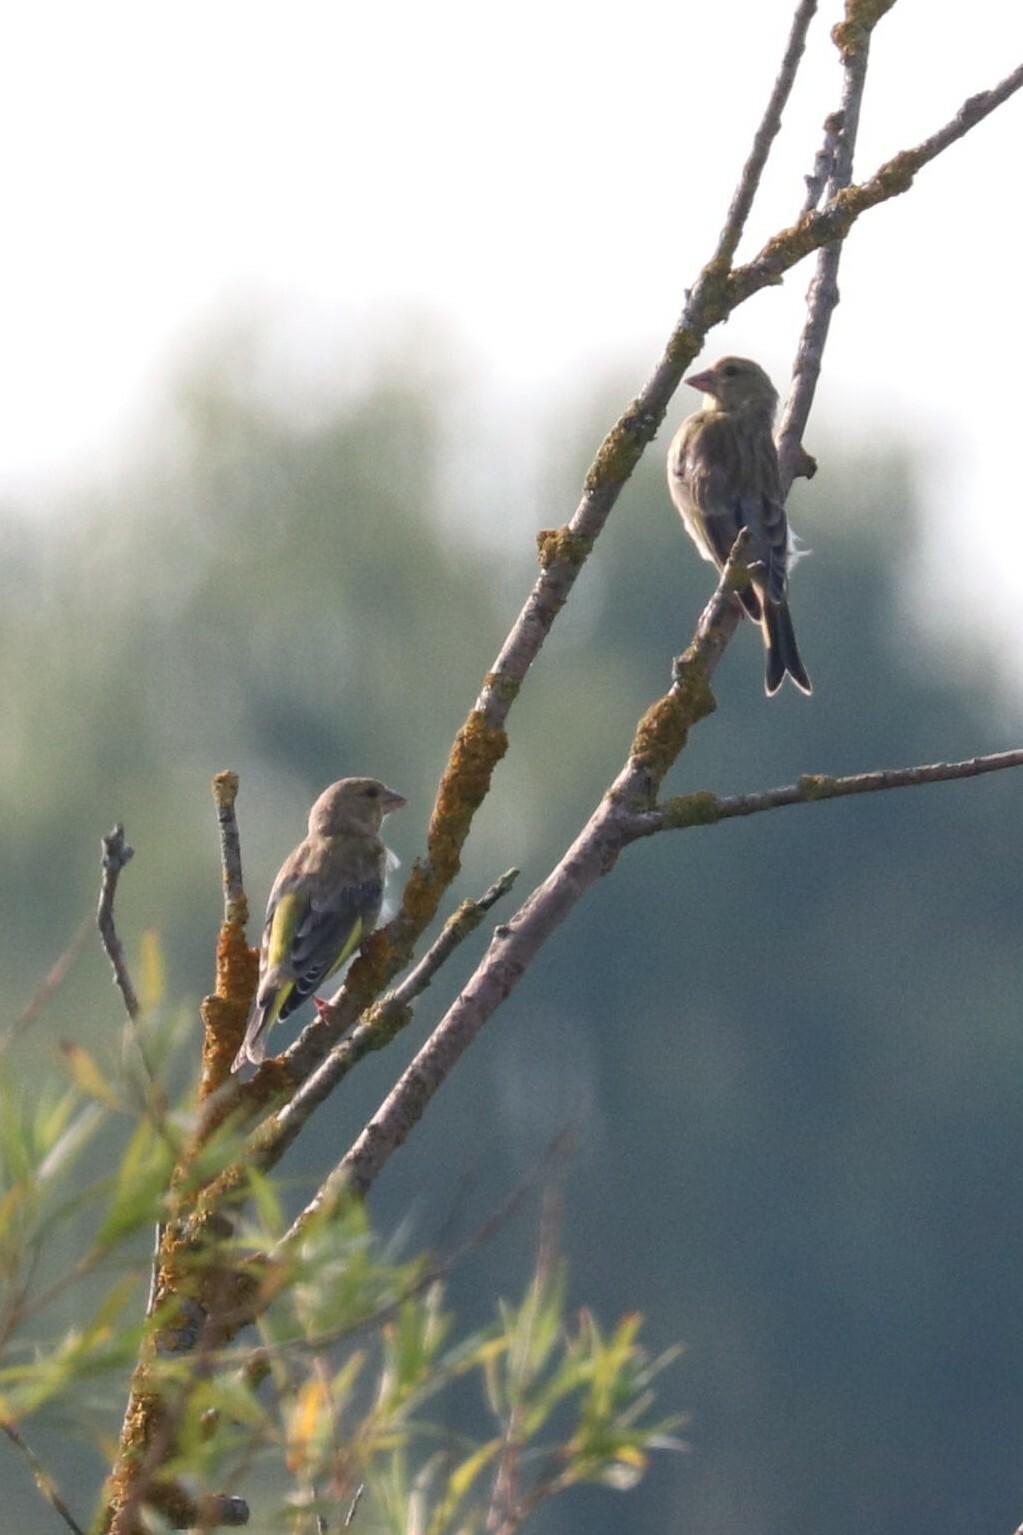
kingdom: Plantae
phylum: Tracheophyta
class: Liliopsida
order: Poales
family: Poaceae
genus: Chloris
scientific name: Chloris chloris
